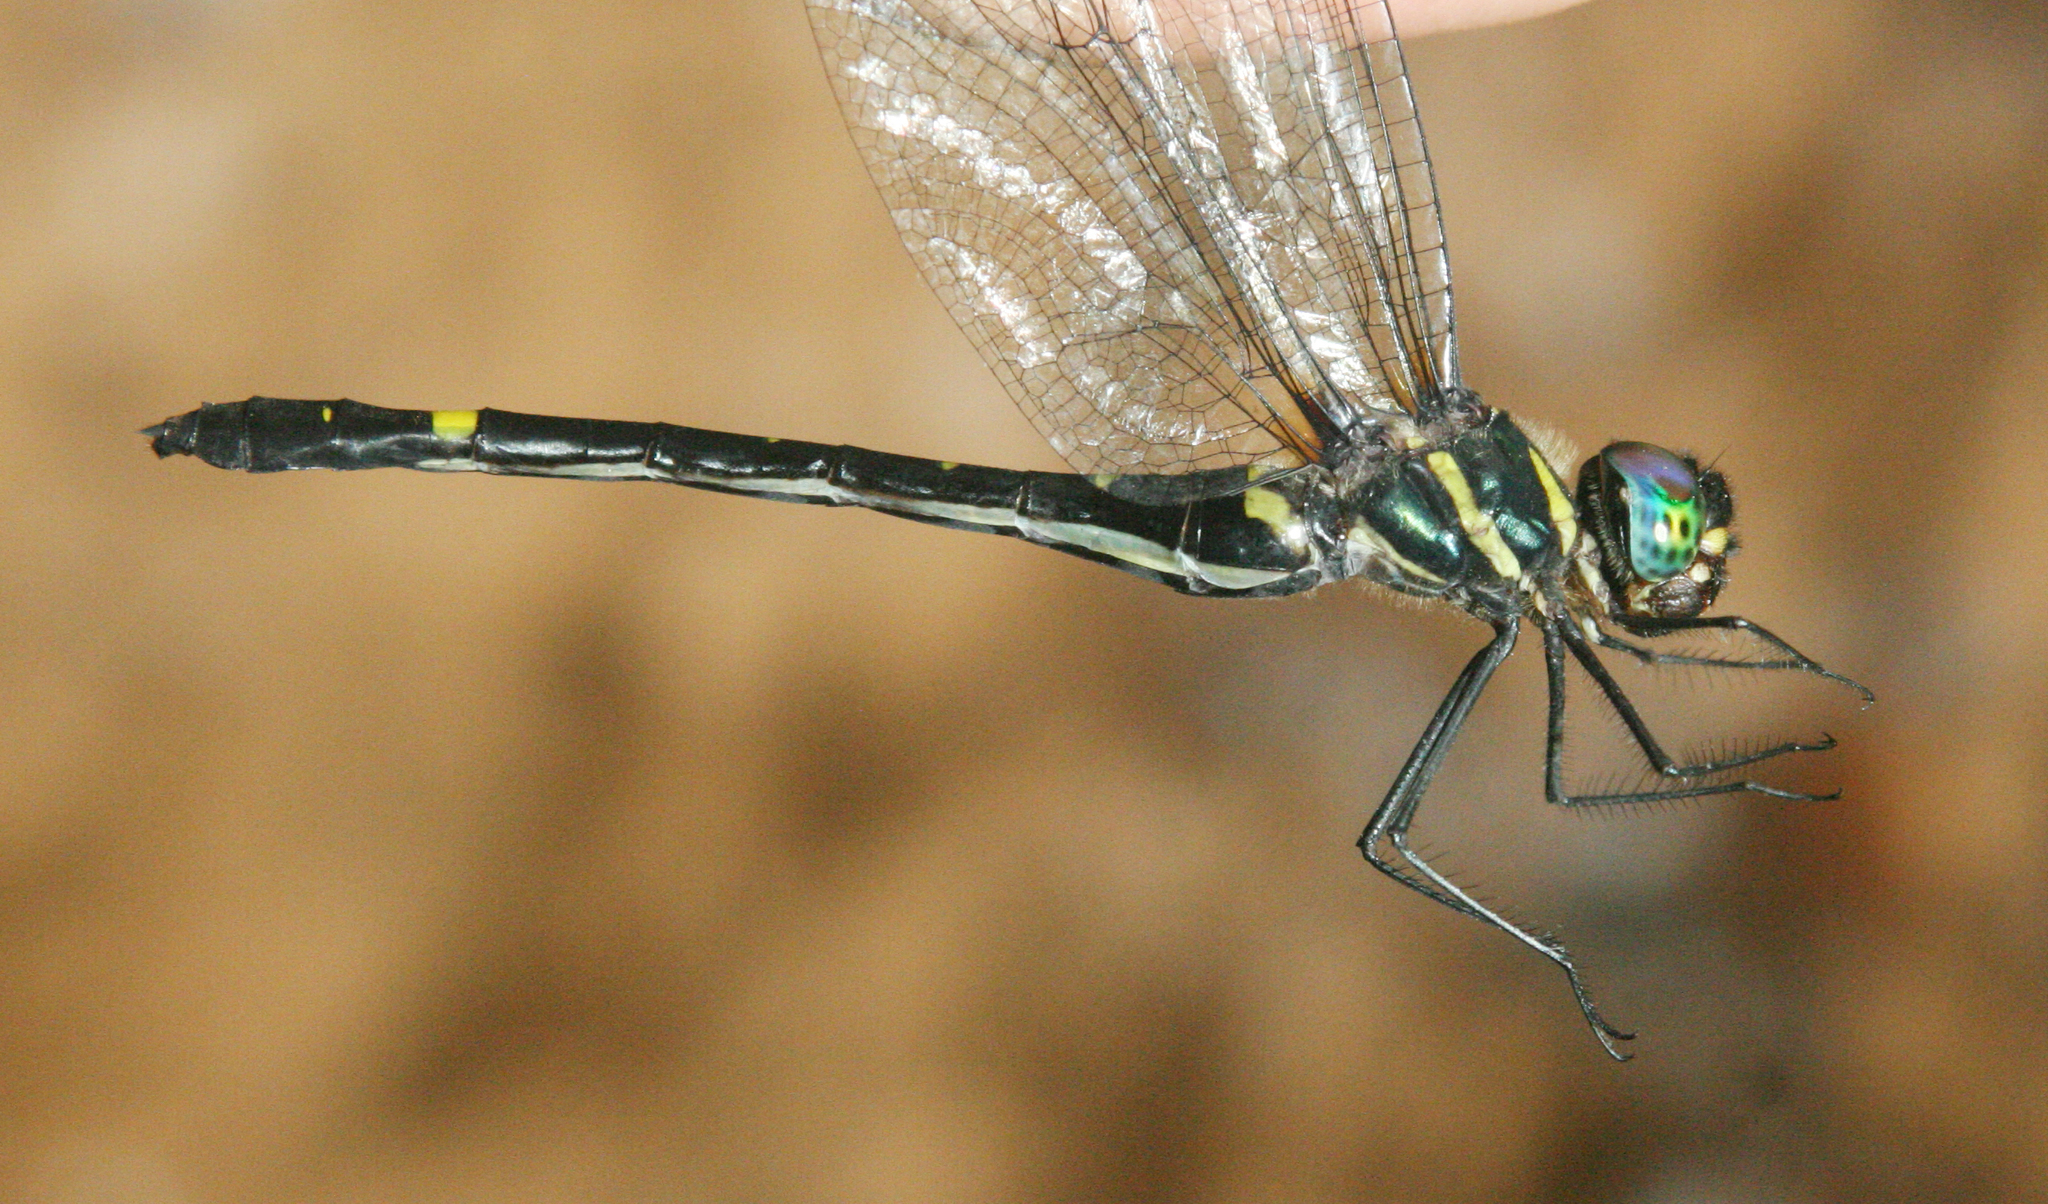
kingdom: Animalia
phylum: Arthropoda
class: Insecta
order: Odonata
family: Macromiidae
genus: Macromia
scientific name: Macromia callisto
